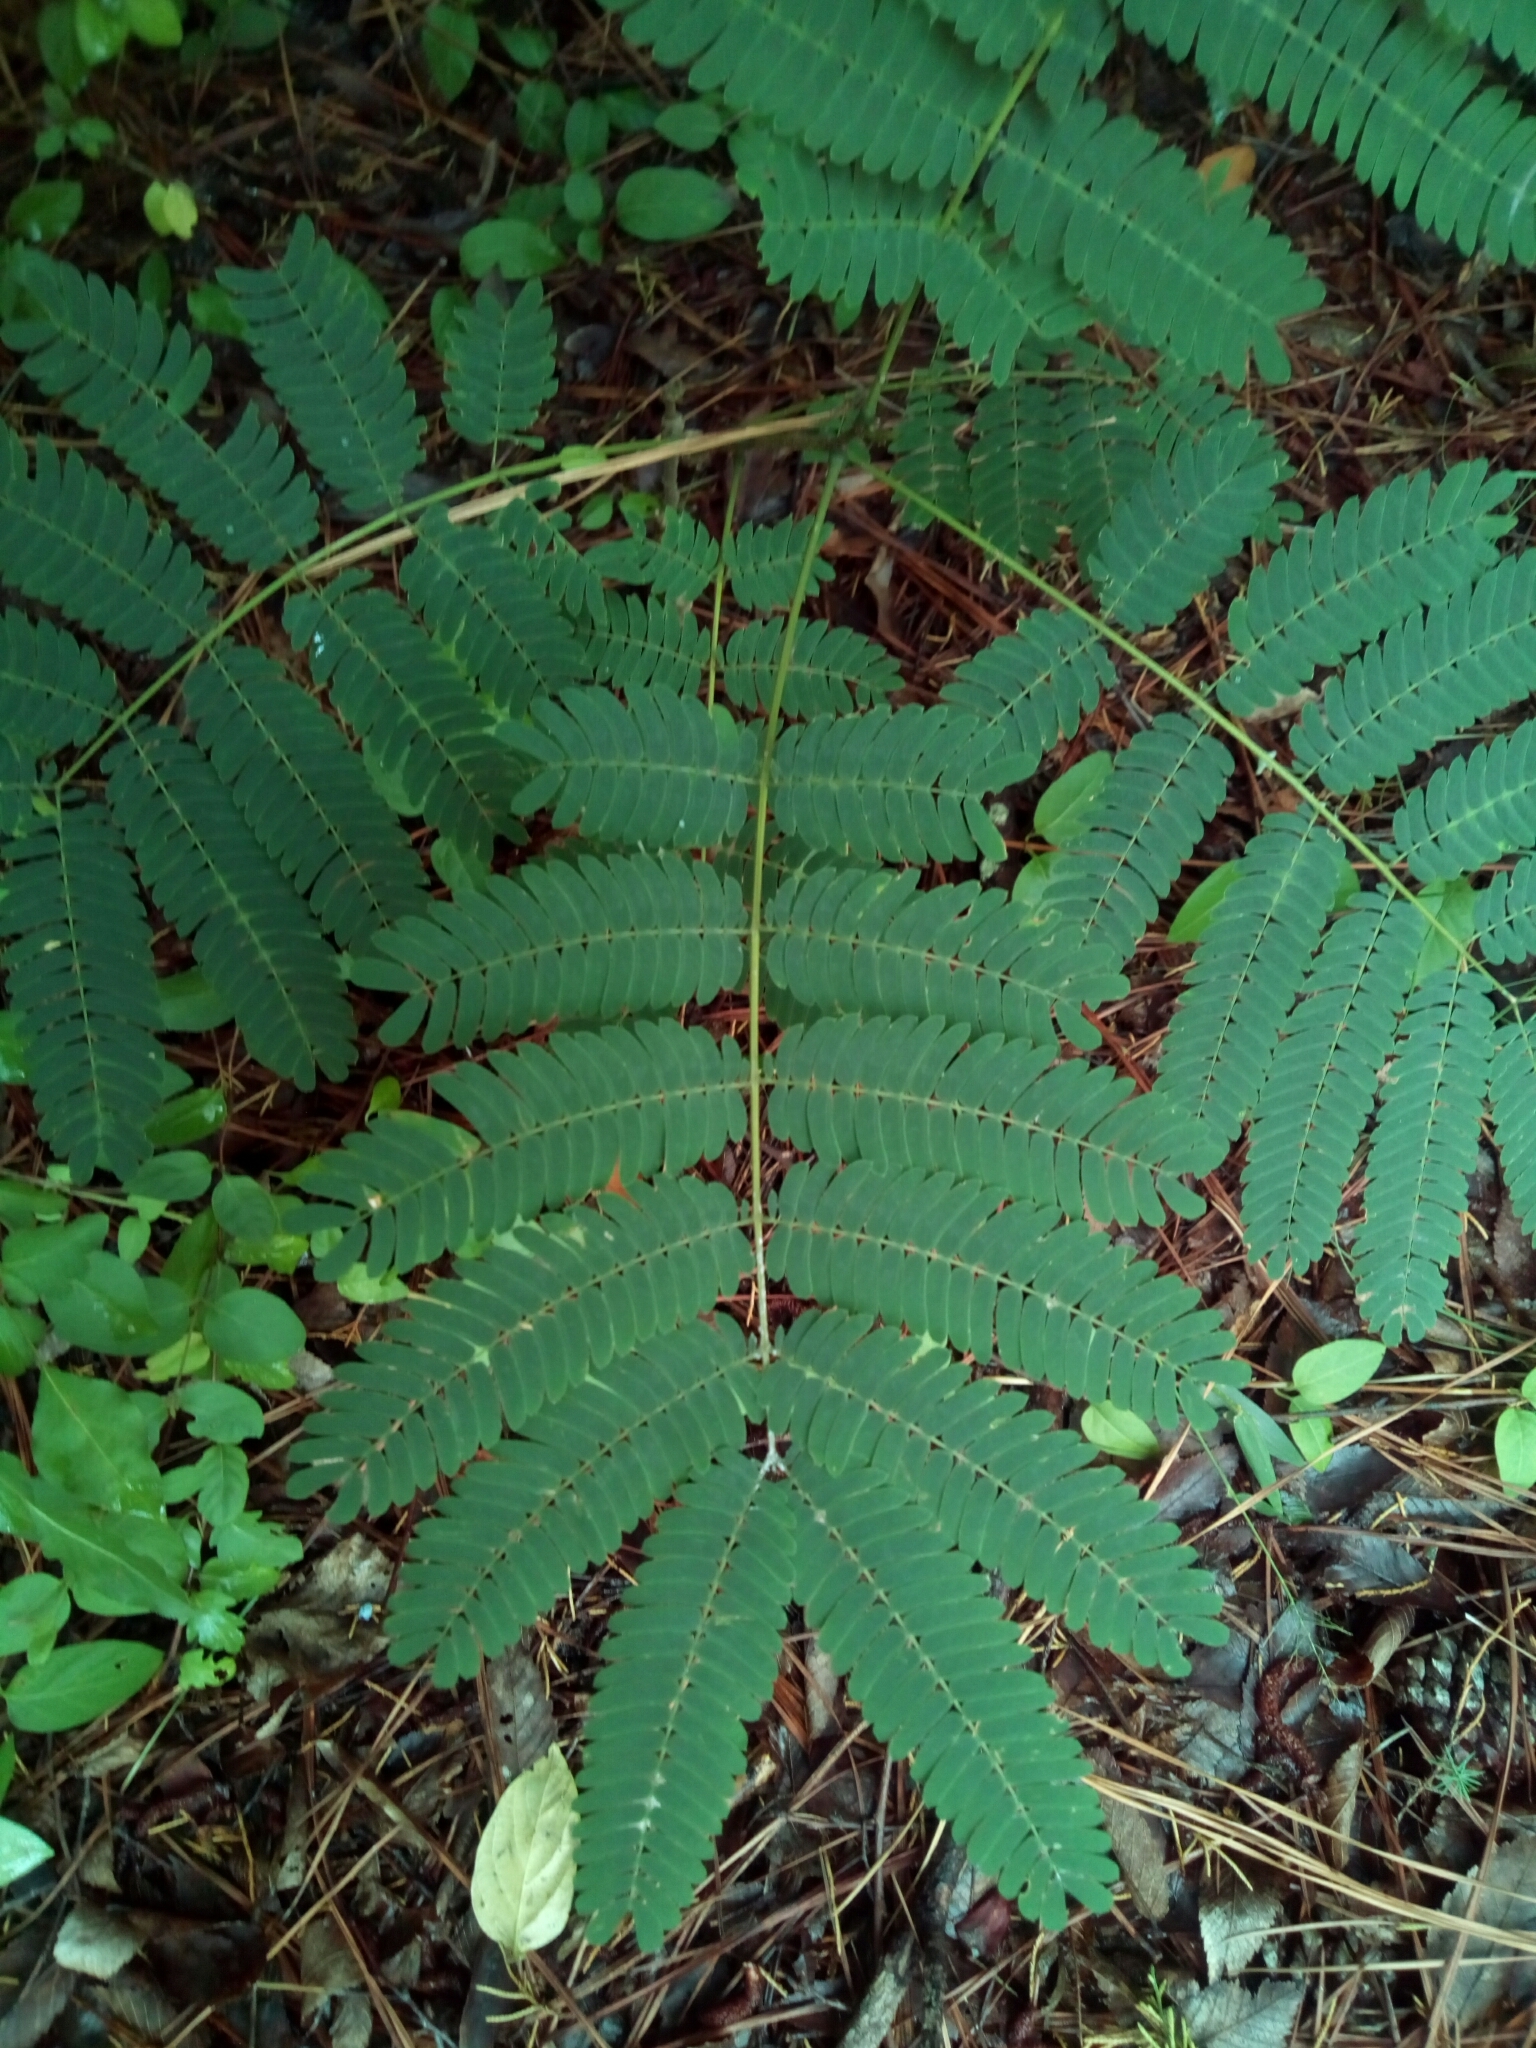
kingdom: Plantae
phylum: Tracheophyta
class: Magnoliopsida
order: Fabales
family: Fabaceae
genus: Albizia
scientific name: Albizia julibrissin
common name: Silktree
